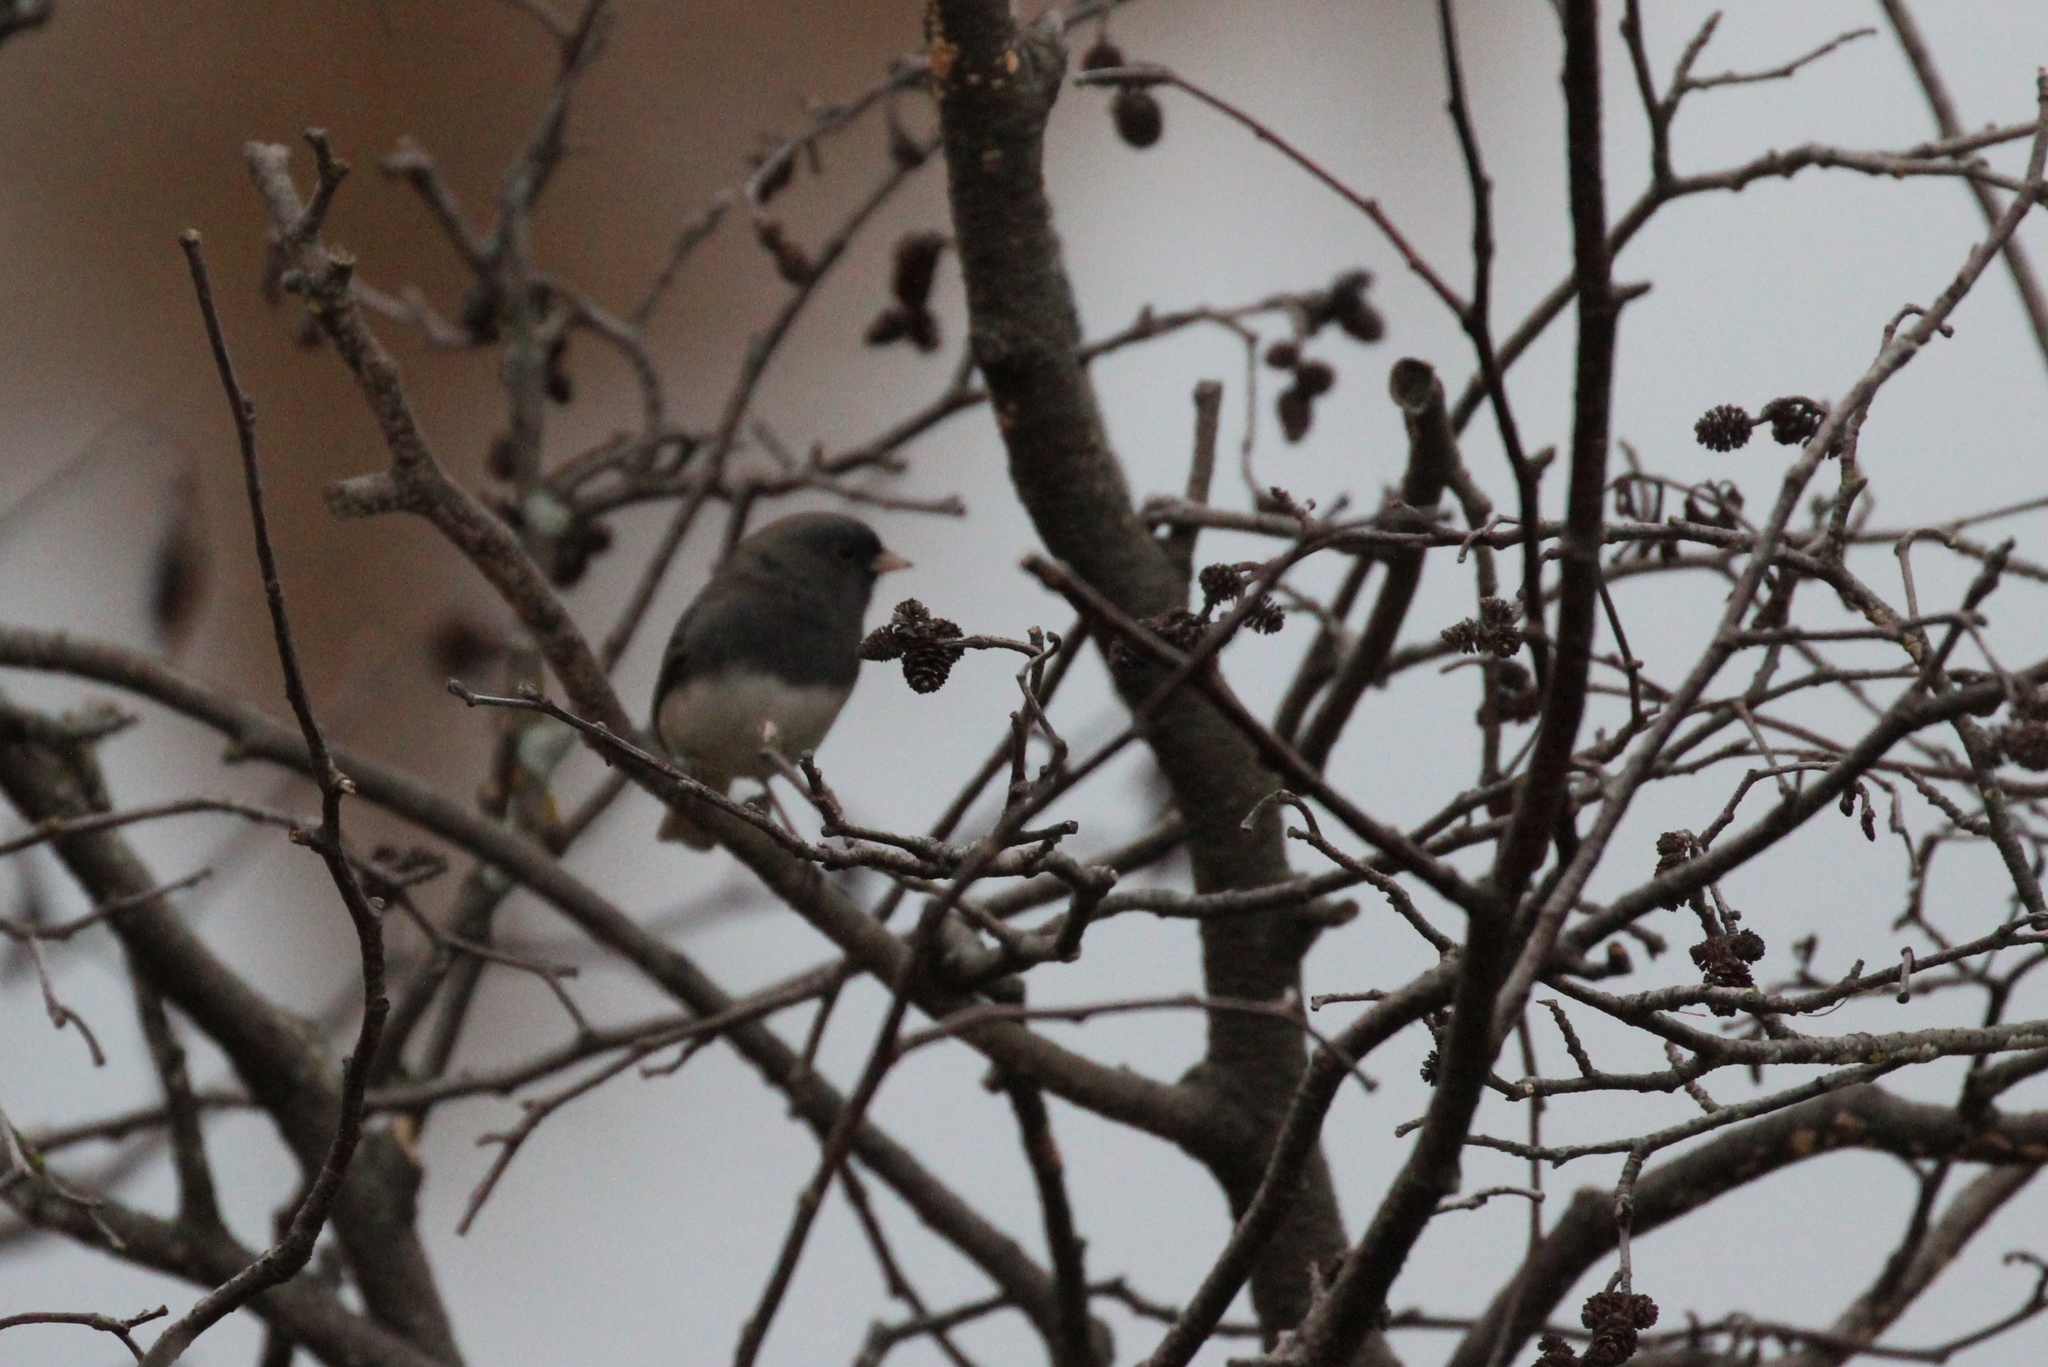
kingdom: Animalia
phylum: Chordata
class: Aves
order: Passeriformes
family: Passerellidae
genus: Junco
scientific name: Junco hyemalis
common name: Dark-eyed junco
